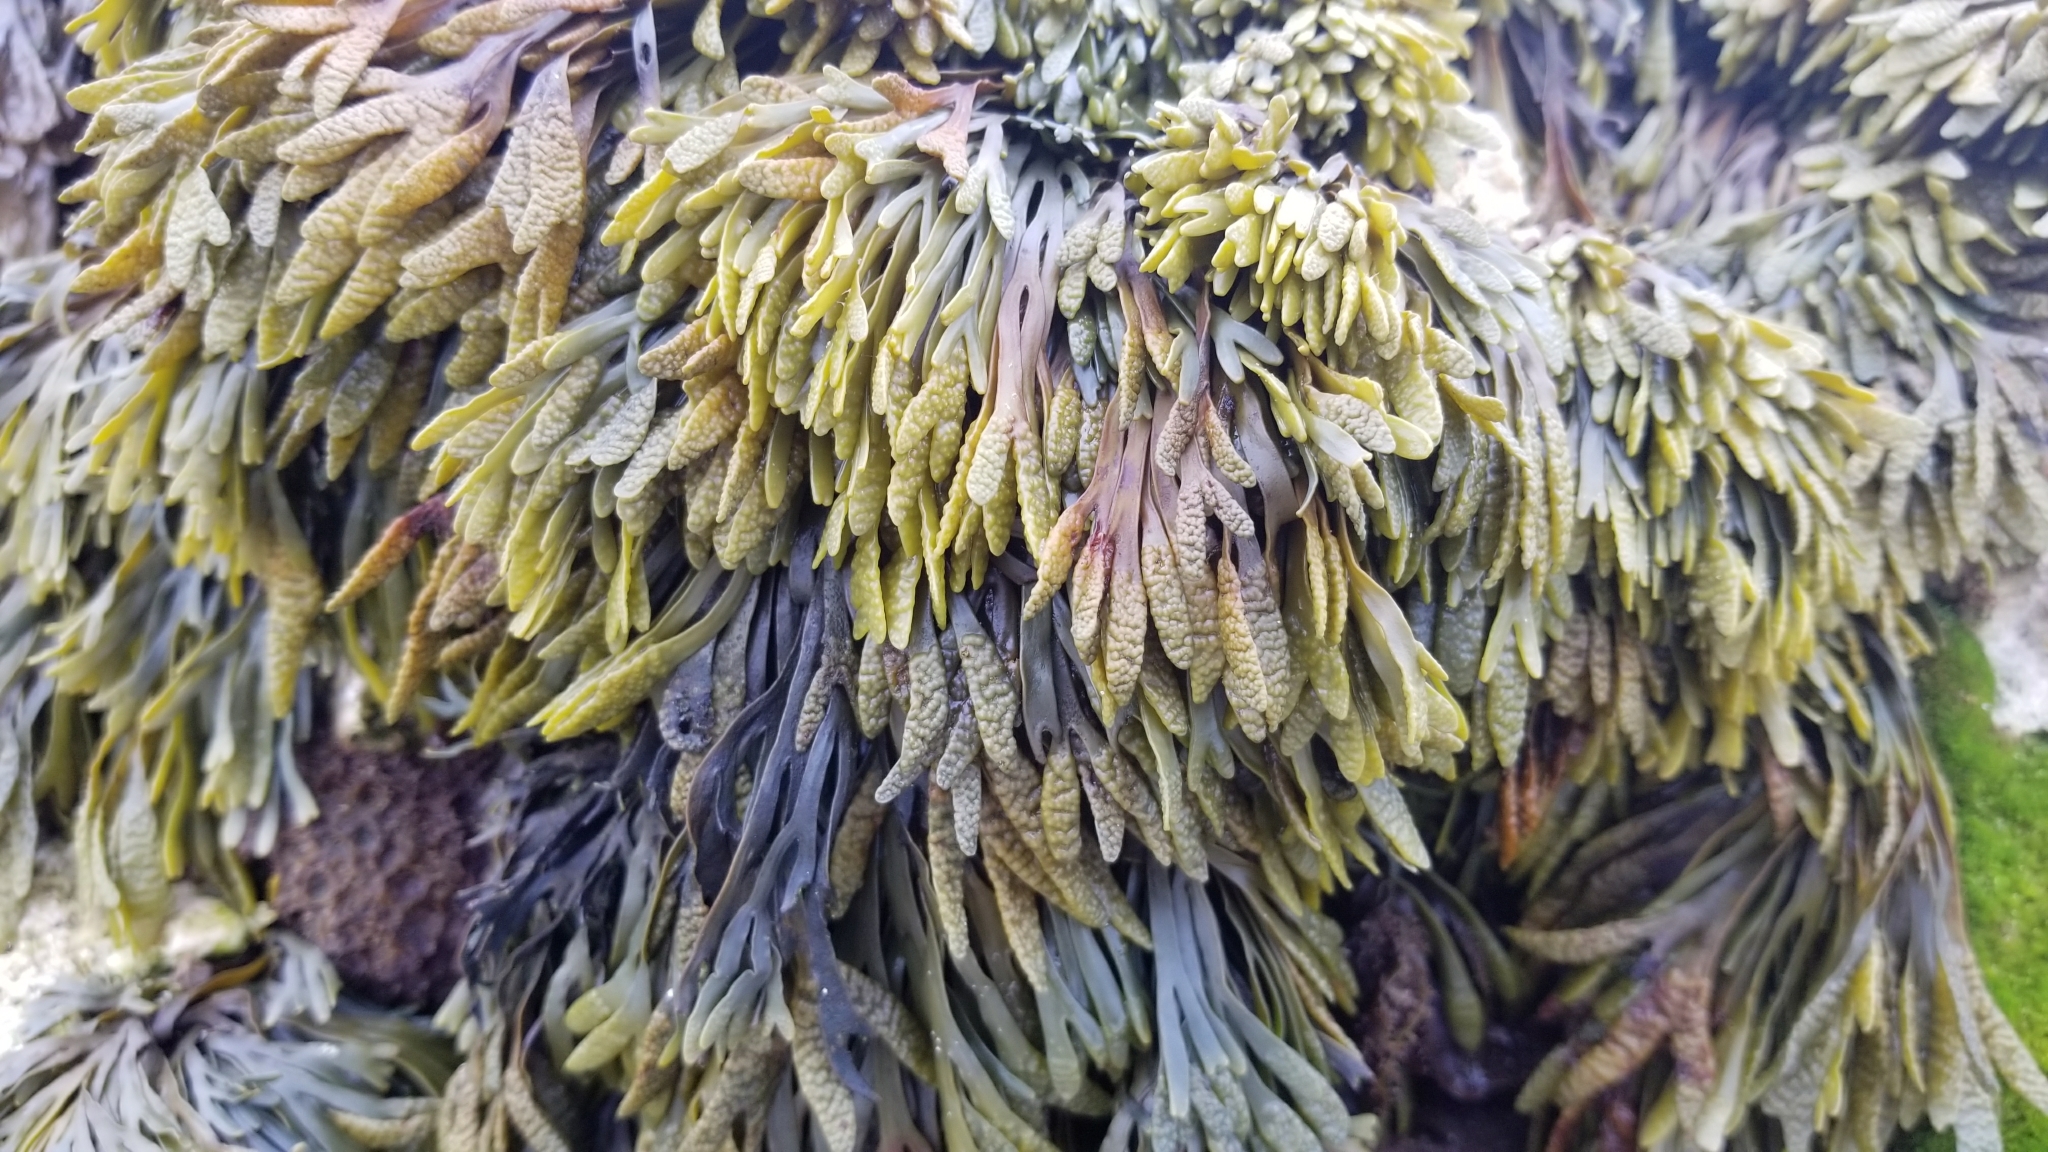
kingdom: Chromista
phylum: Ochrophyta
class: Phaeophyceae
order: Fucales
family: Fucaceae
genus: Silvetia
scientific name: Silvetia
